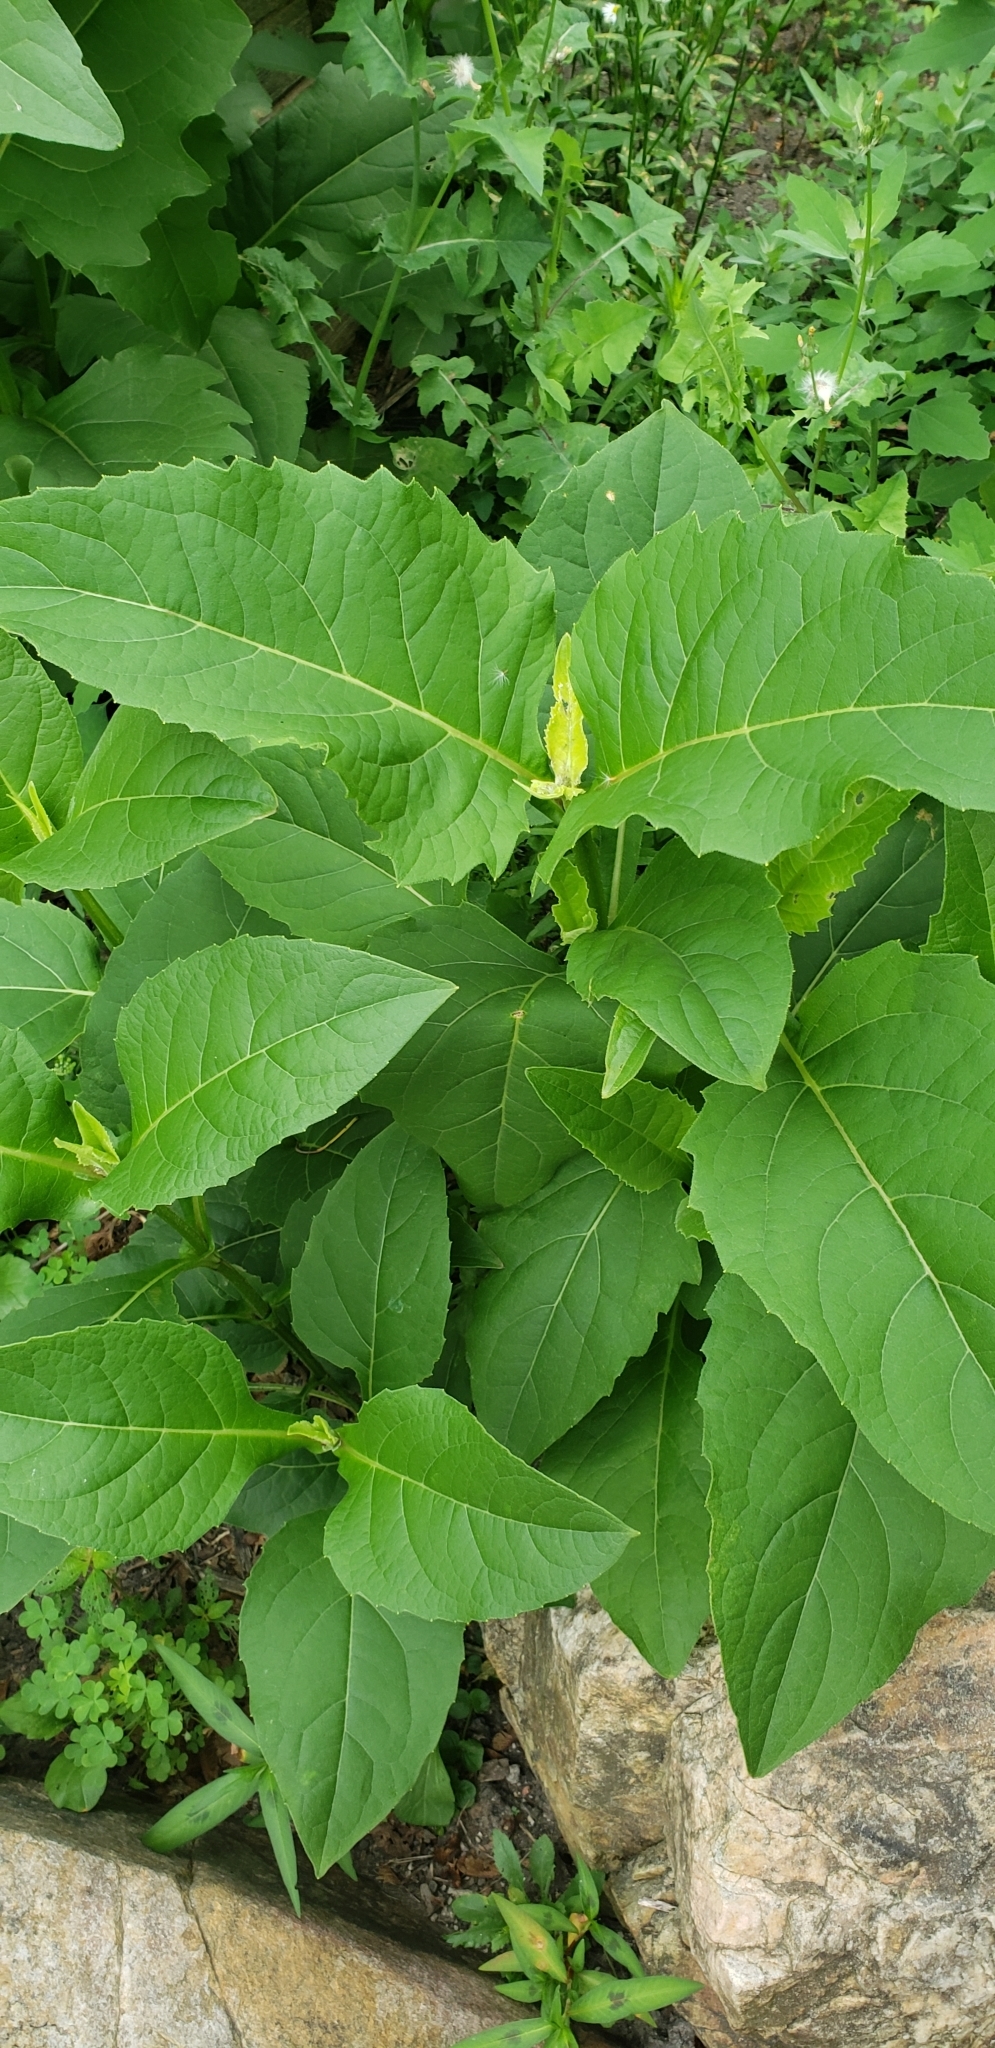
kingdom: Plantae
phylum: Tracheophyta
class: Magnoliopsida
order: Asterales
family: Asteraceae
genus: Silphium
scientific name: Silphium perfoliatum
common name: Cup-plant
